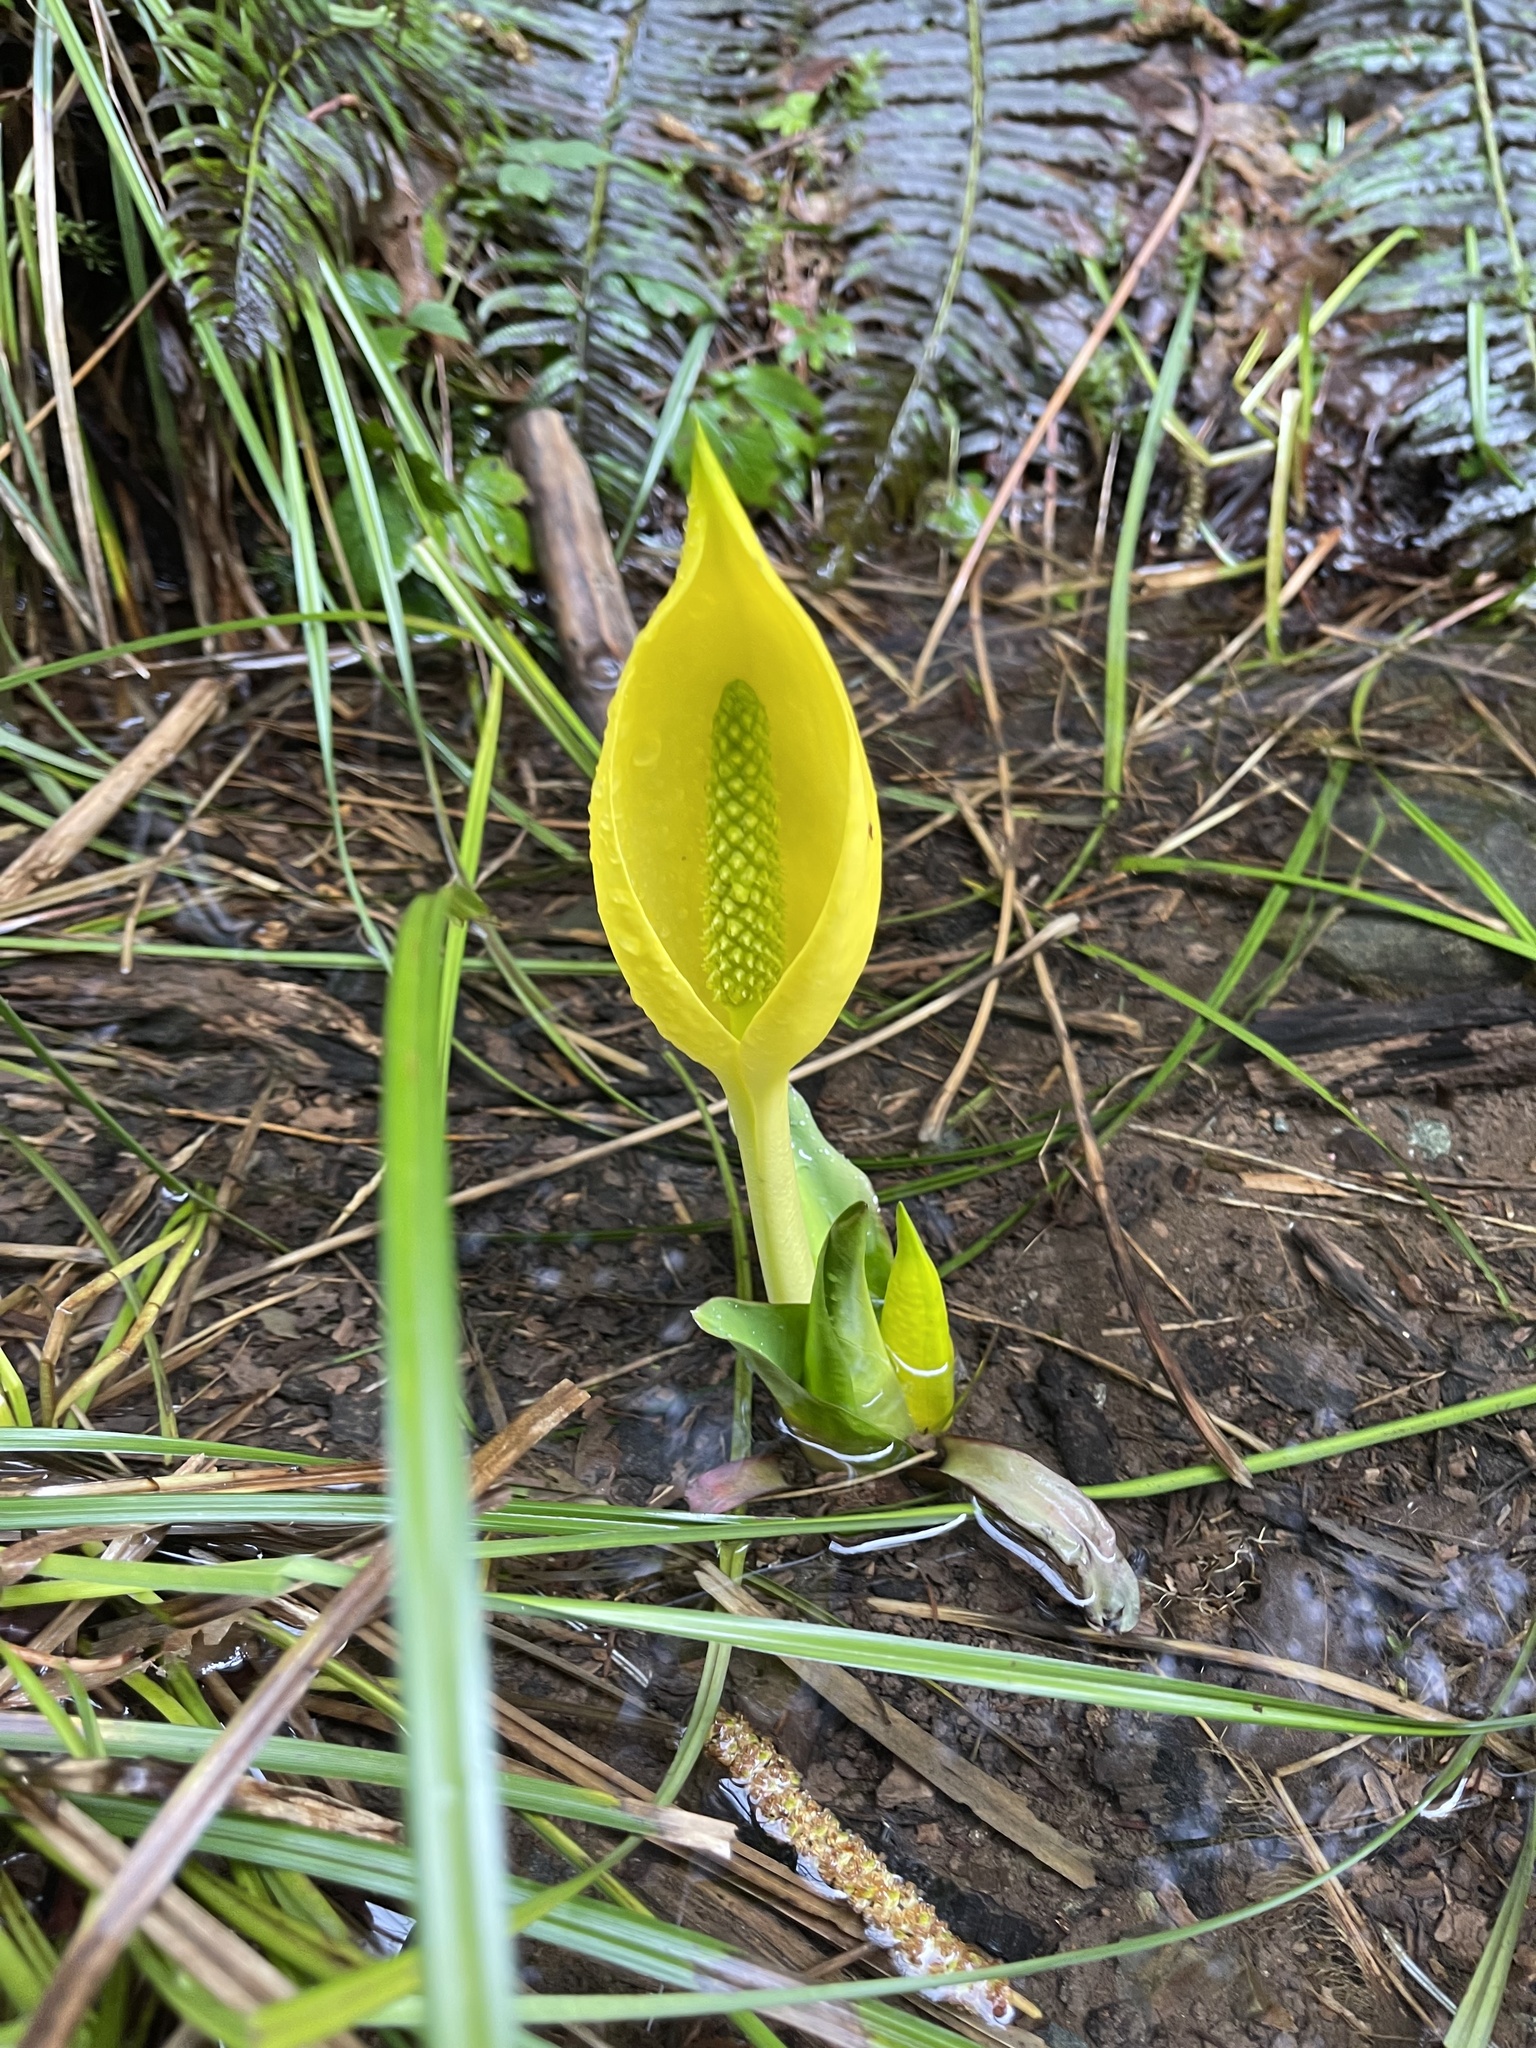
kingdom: Plantae
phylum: Tracheophyta
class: Liliopsida
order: Alismatales
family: Araceae
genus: Lysichiton
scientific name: Lysichiton americanus
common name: American skunk cabbage
